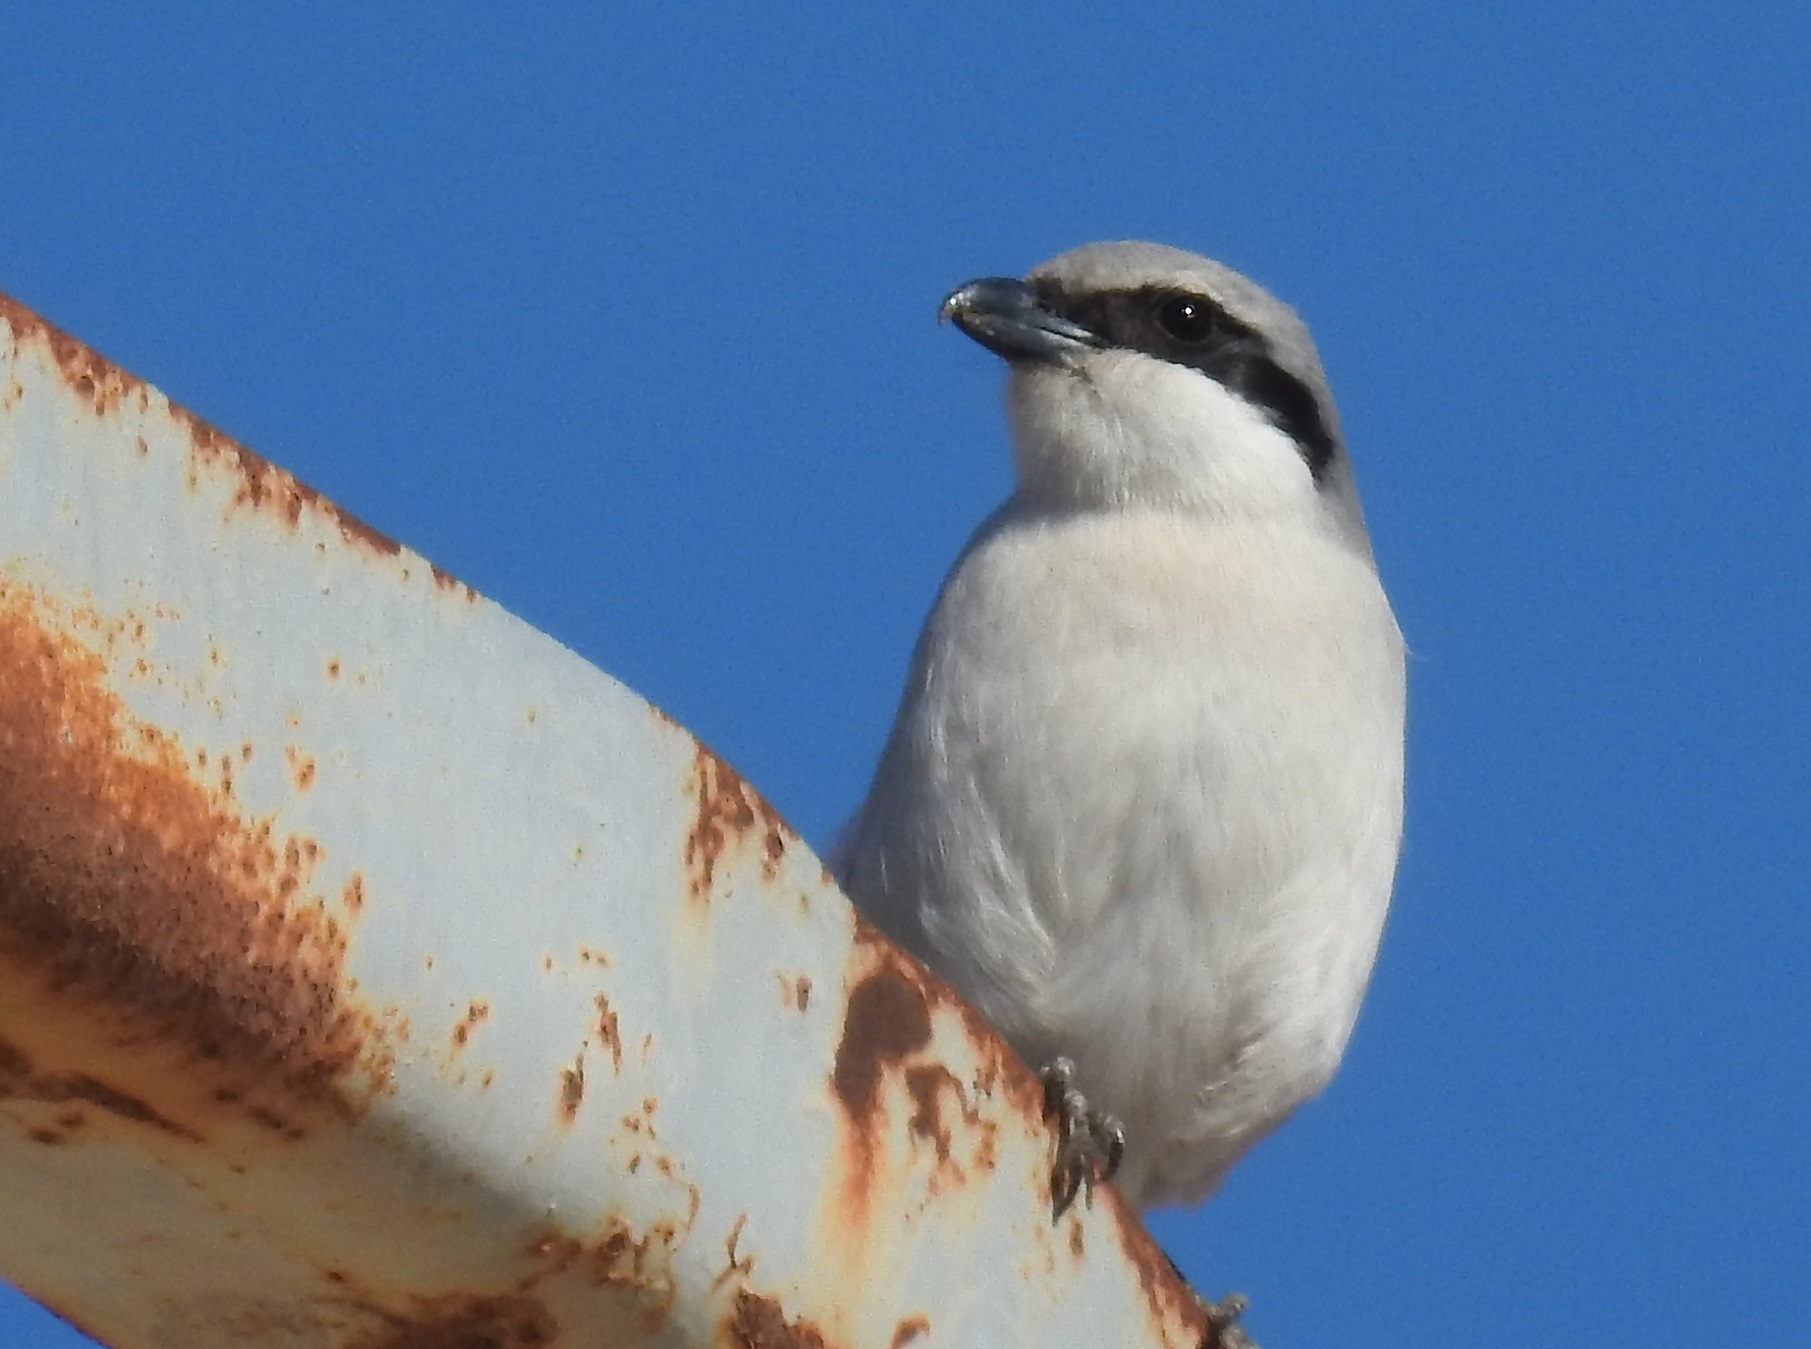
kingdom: Animalia
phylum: Chordata
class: Aves
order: Passeriformes
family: Laniidae
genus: Lanius
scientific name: Lanius excubitor
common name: Great grey shrike
